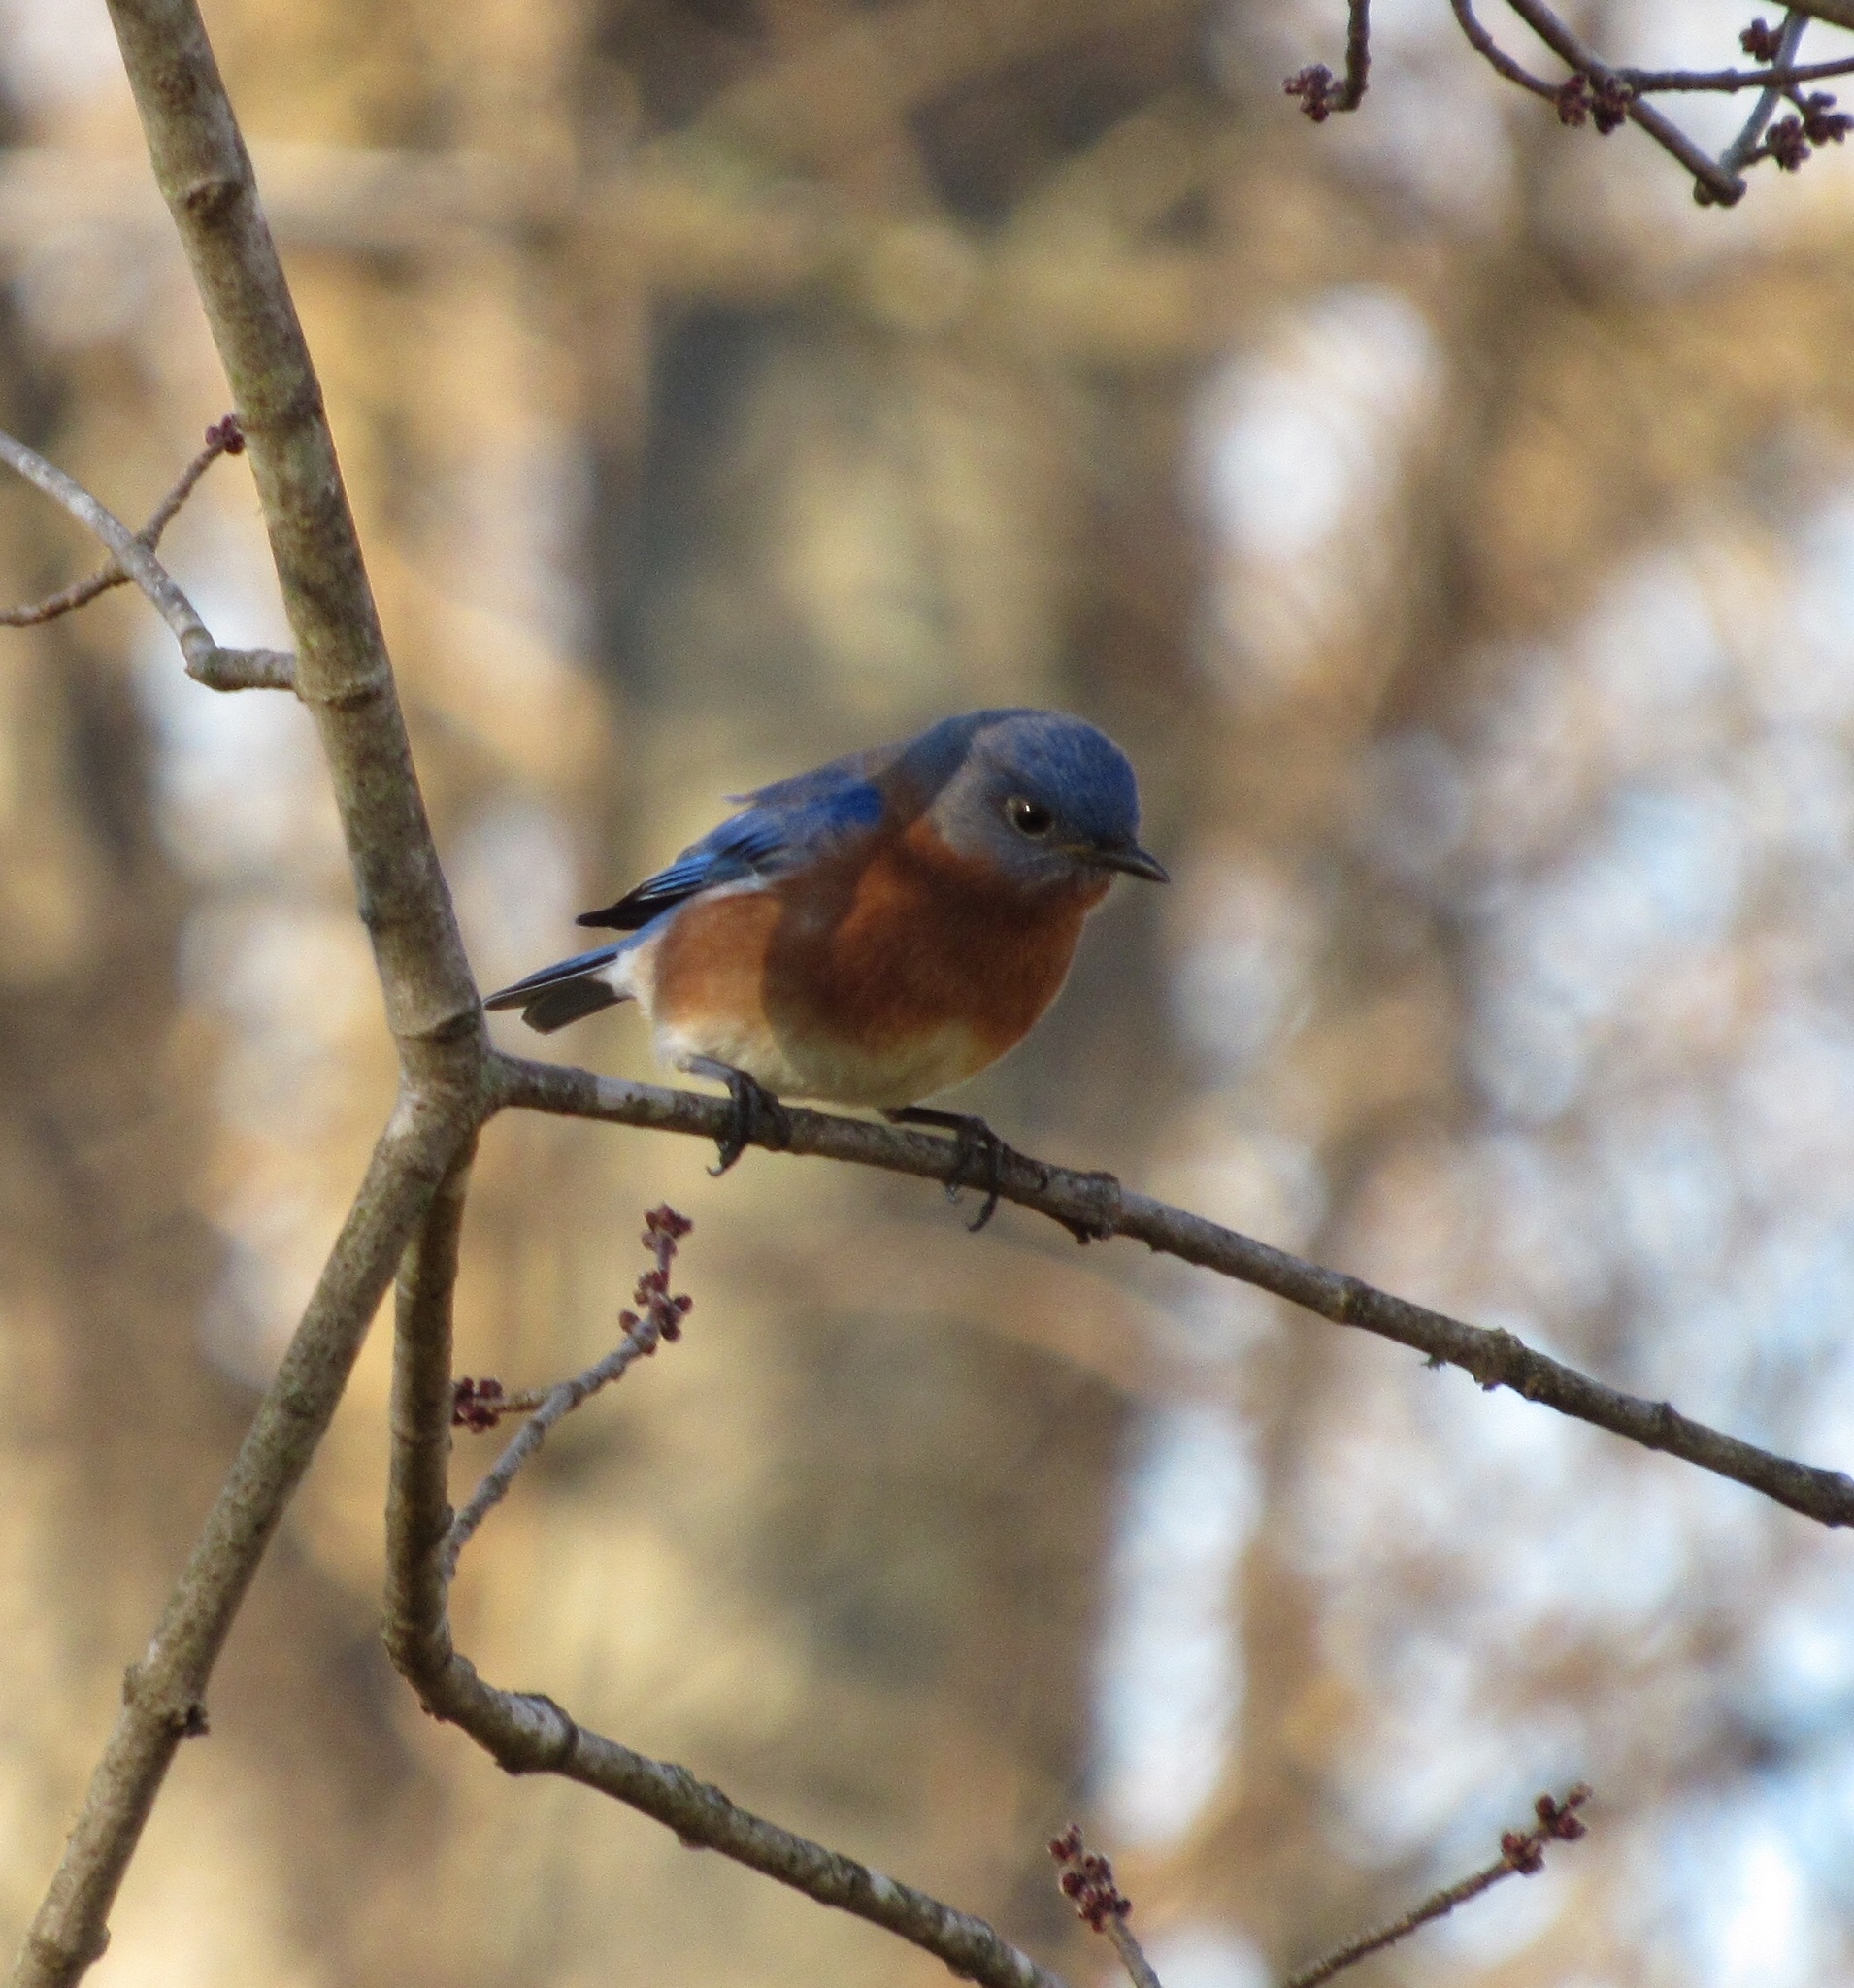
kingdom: Animalia
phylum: Chordata
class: Aves
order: Passeriformes
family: Turdidae
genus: Sialia
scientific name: Sialia sialis
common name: Eastern bluebird
